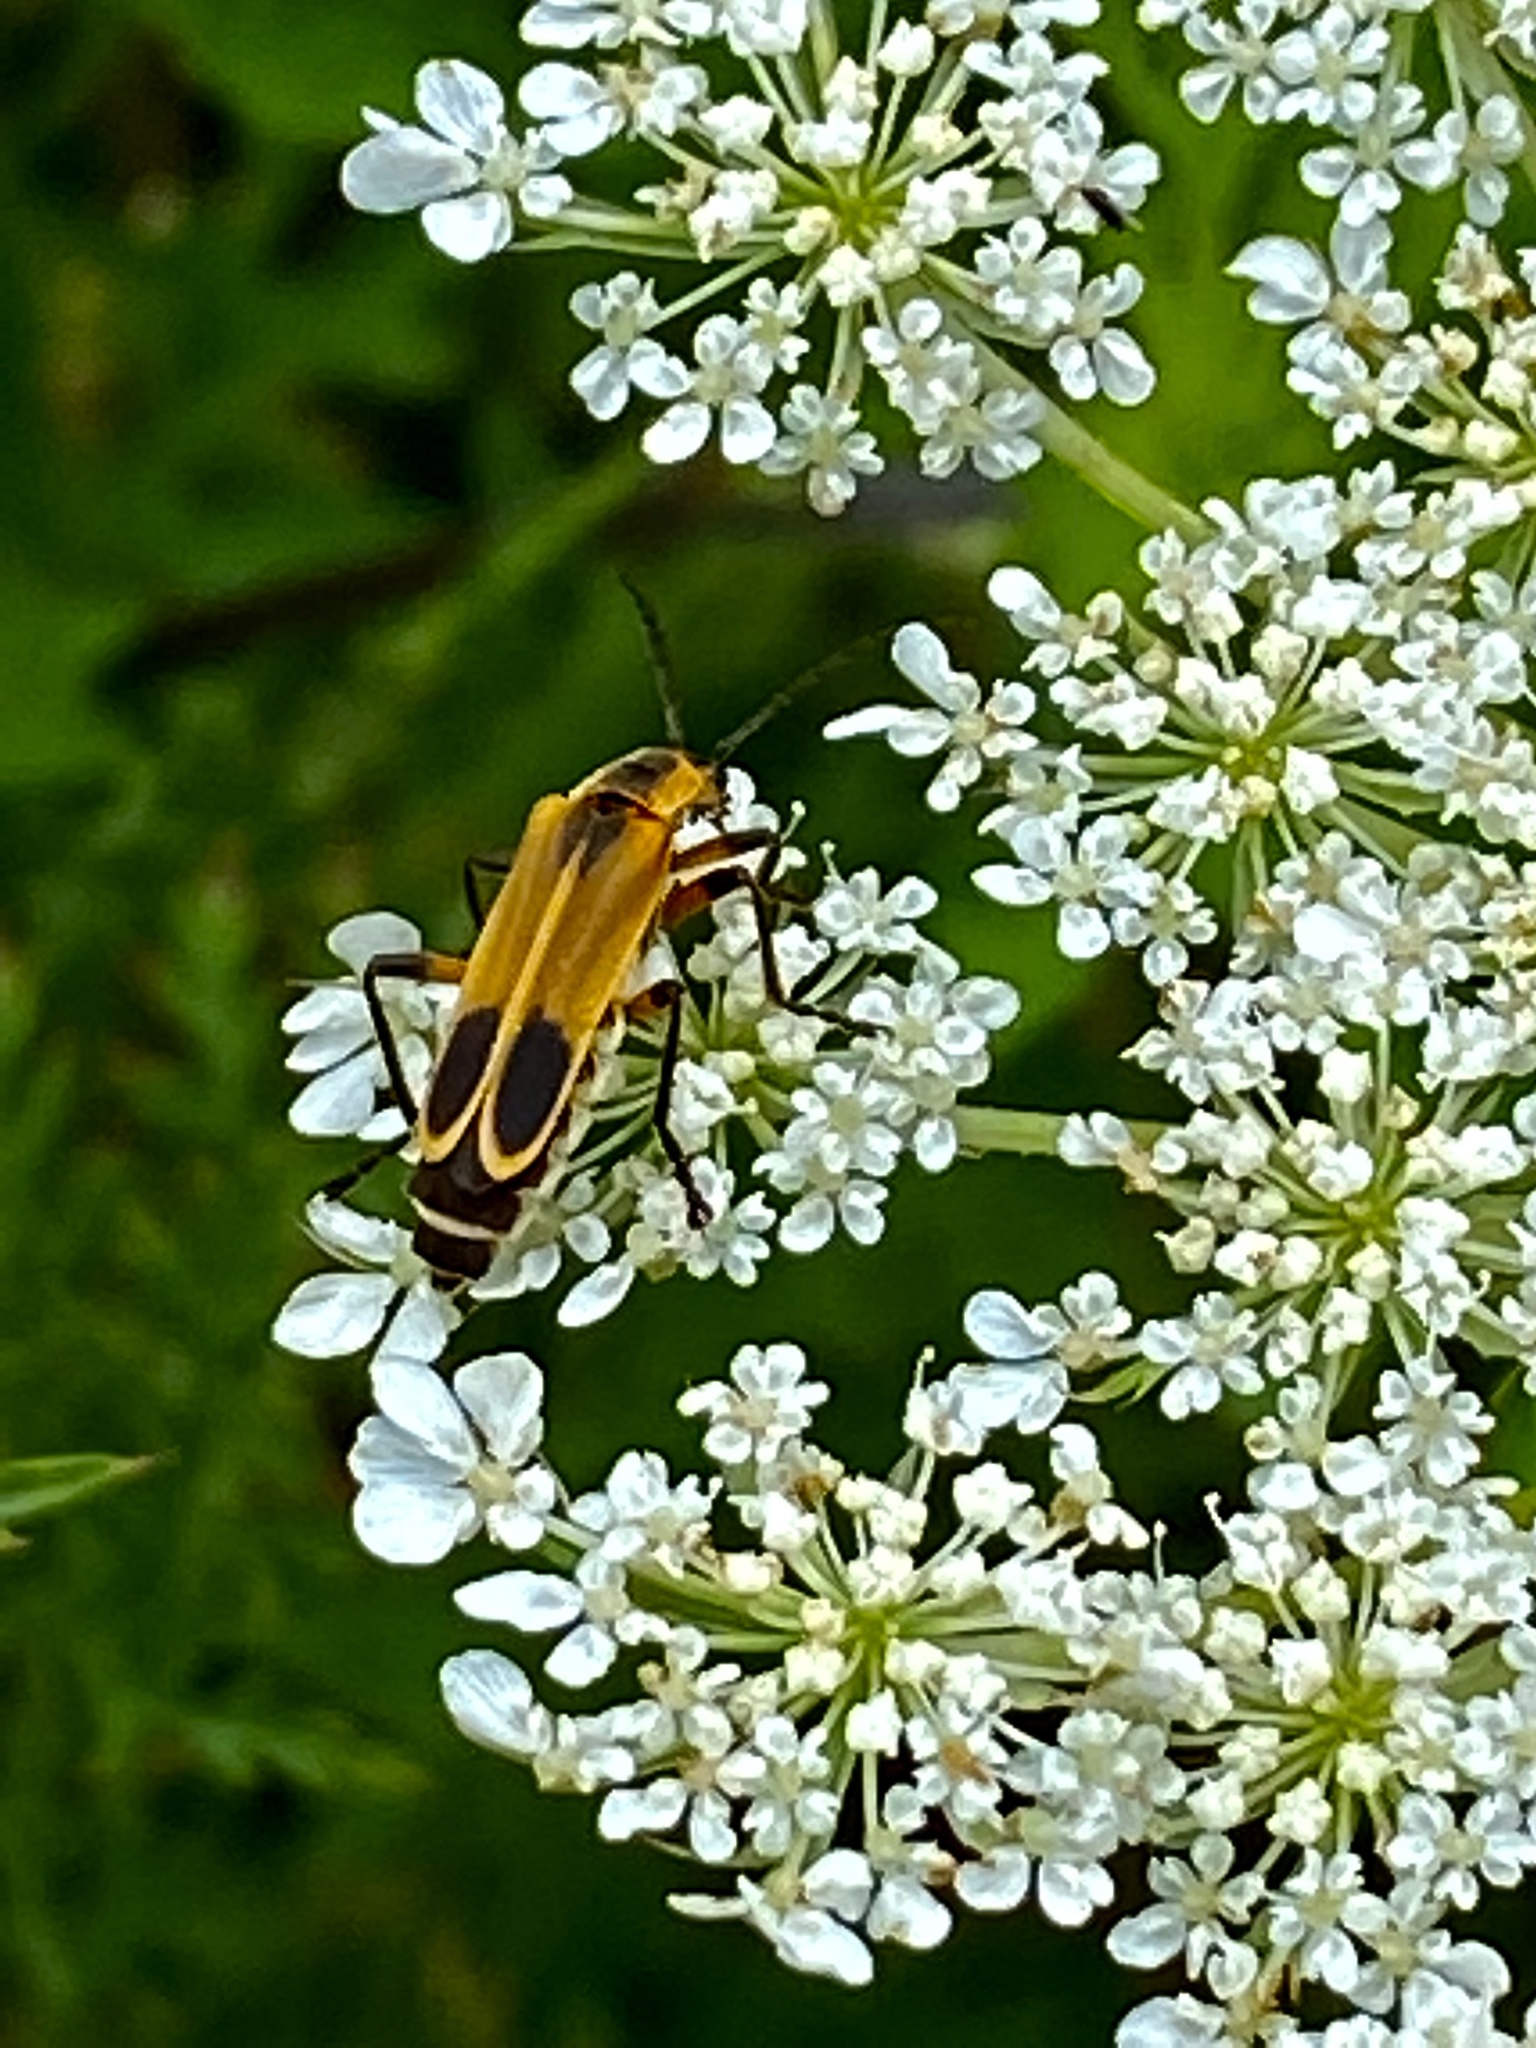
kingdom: Animalia
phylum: Arthropoda
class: Insecta
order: Coleoptera
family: Cantharidae
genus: Chauliognathus
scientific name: Chauliognathus marginatus
